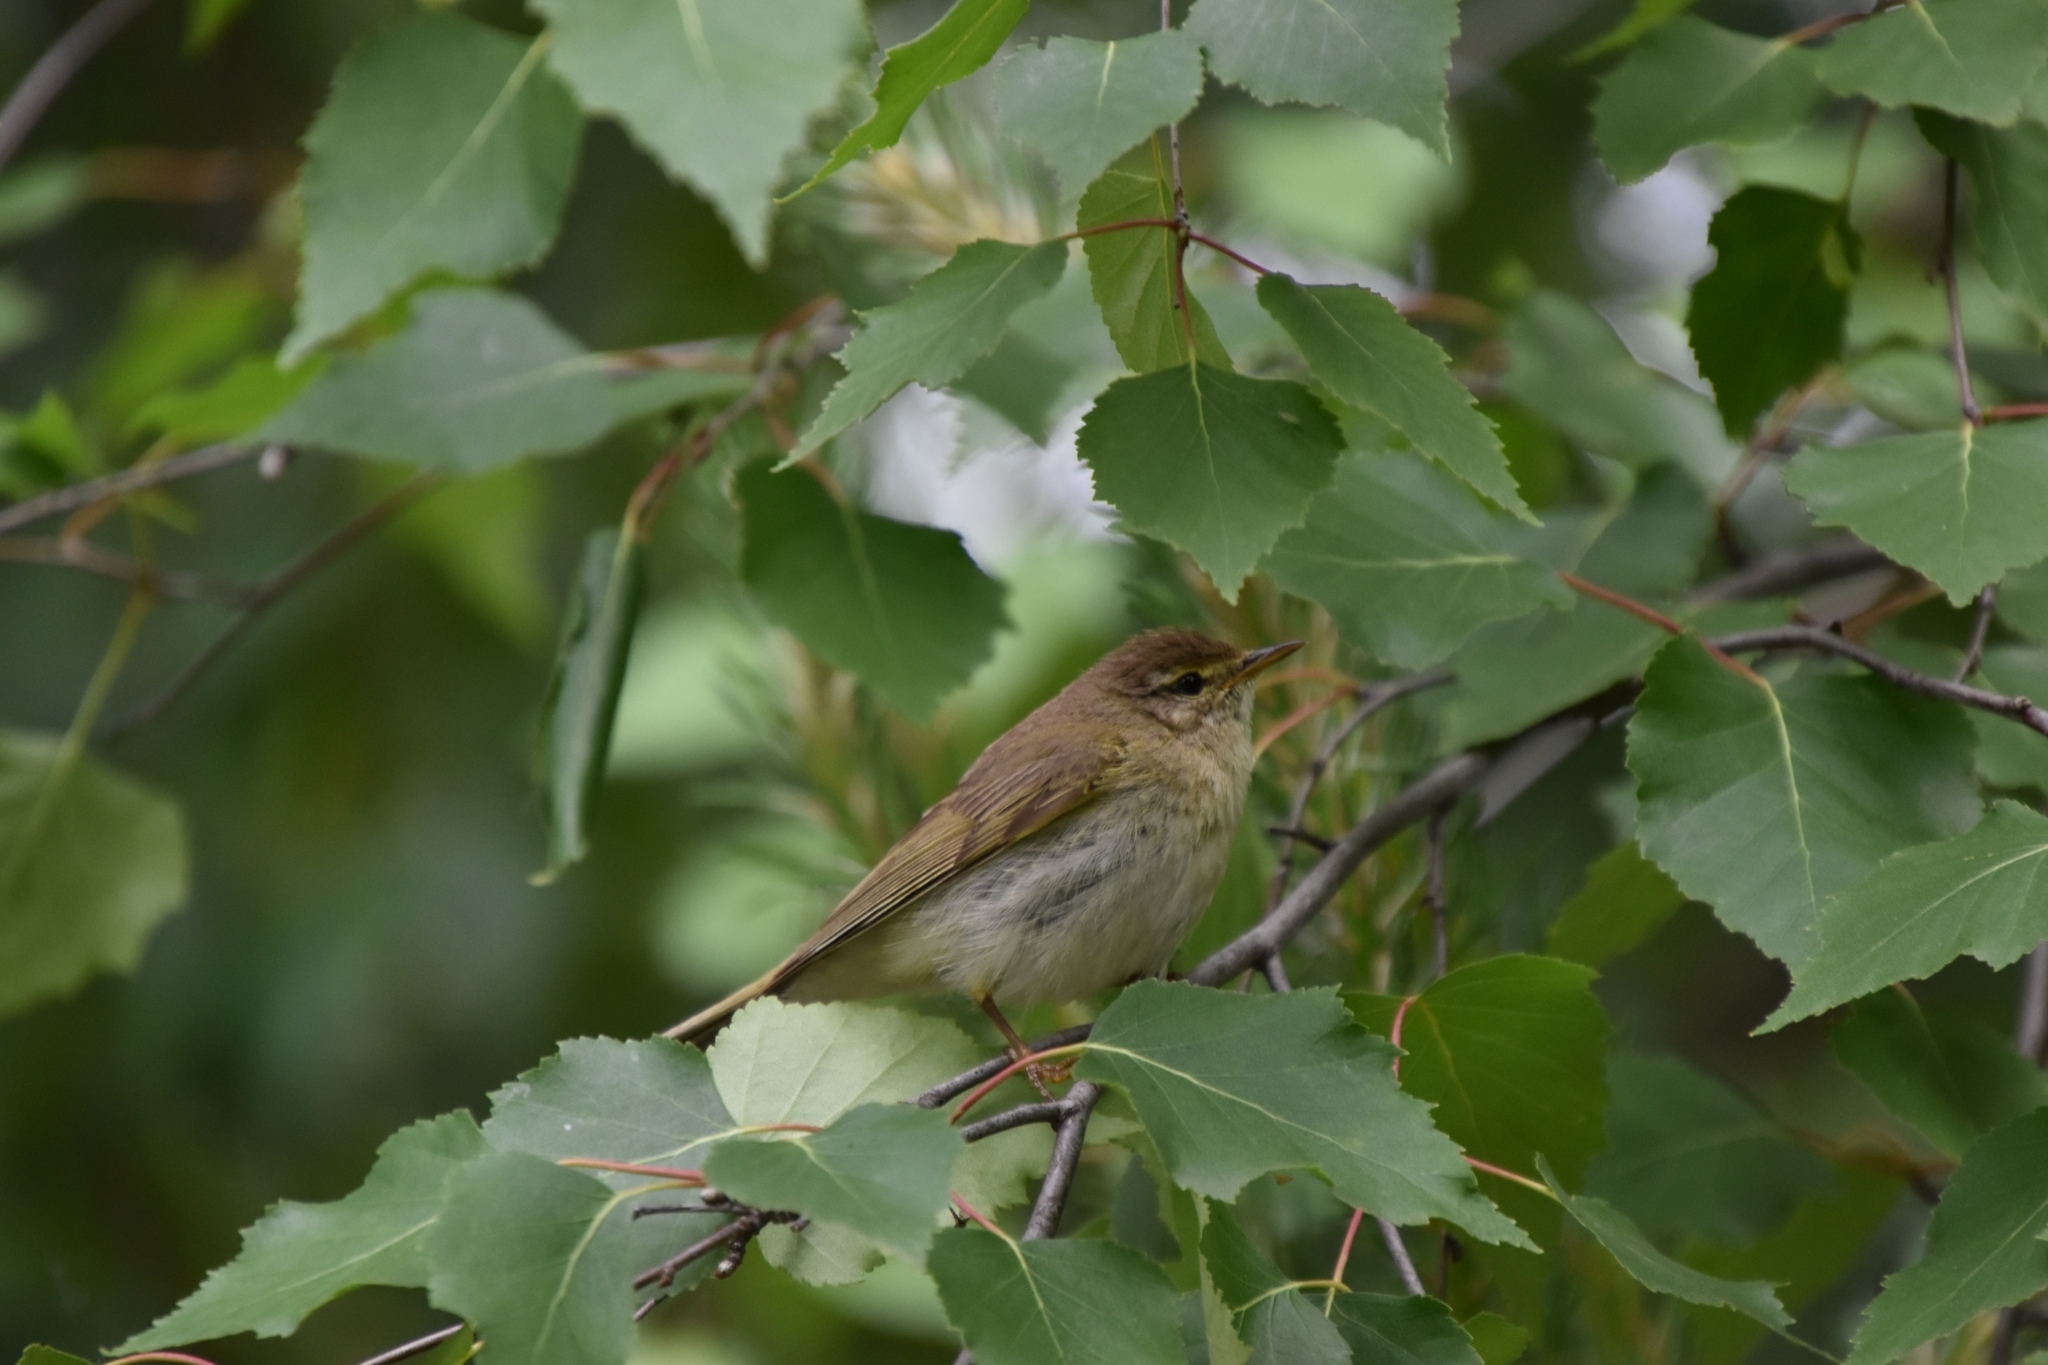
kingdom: Animalia
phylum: Chordata
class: Aves
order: Passeriformes
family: Phylloscopidae
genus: Phylloscopus
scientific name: Phylloscopus trochilus
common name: Willow warbler
